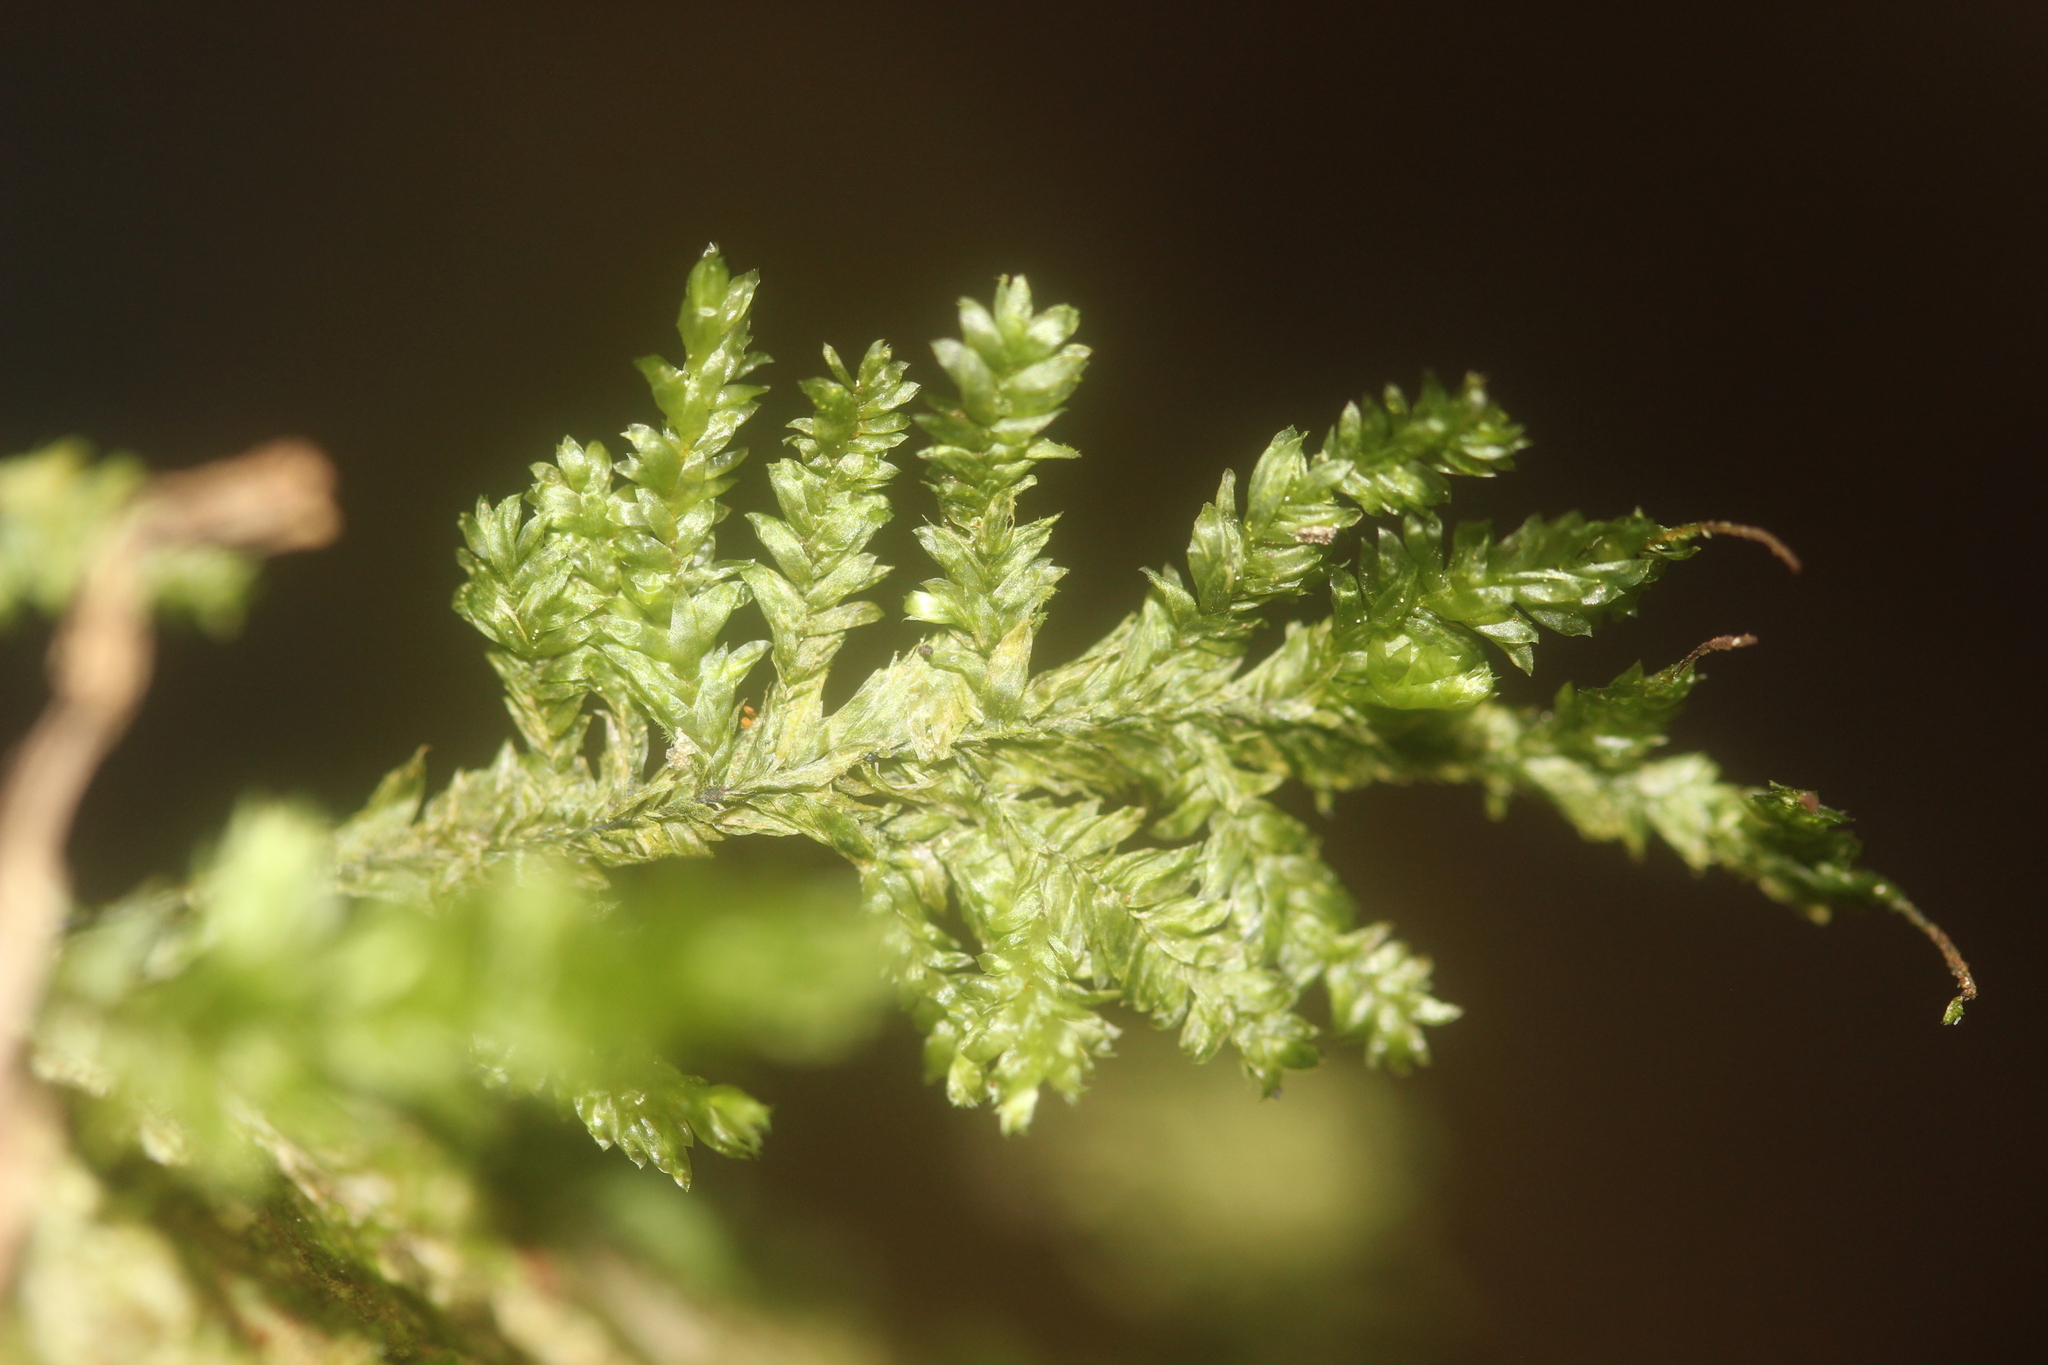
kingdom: Plantae
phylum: Bryophyta
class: Bryopsida
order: Hypnales
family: Trachylomataceae
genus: Trachyloma
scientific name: Trachyloma diversinerve
